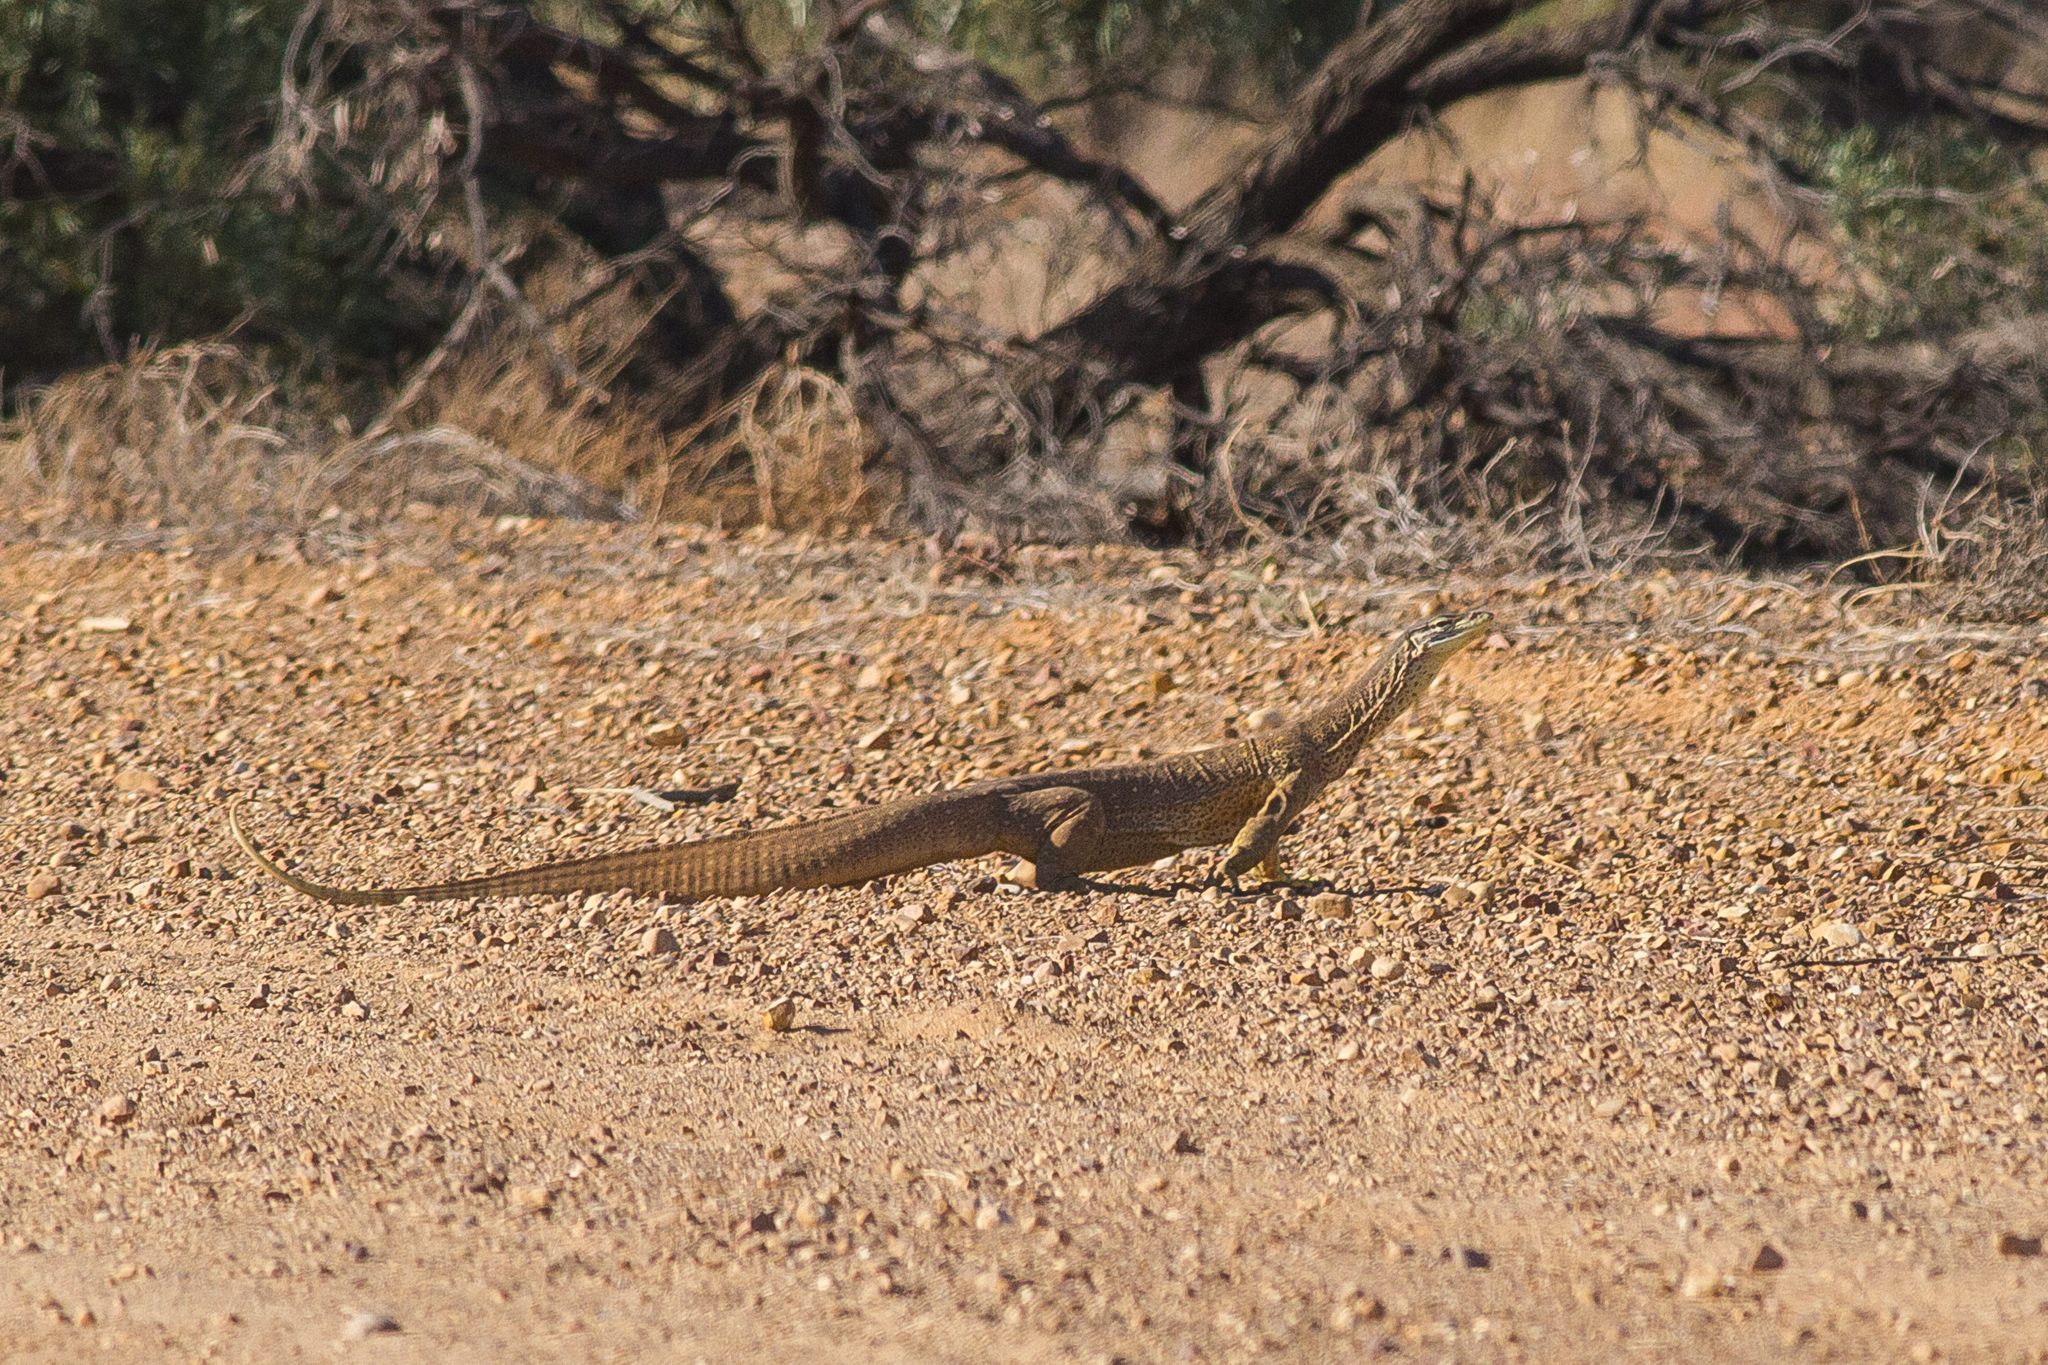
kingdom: Animalia
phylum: Chordata
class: Squamata
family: Varanidae
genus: Varanus
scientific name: Varanus panoptes
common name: Yellow-spotted monitor
